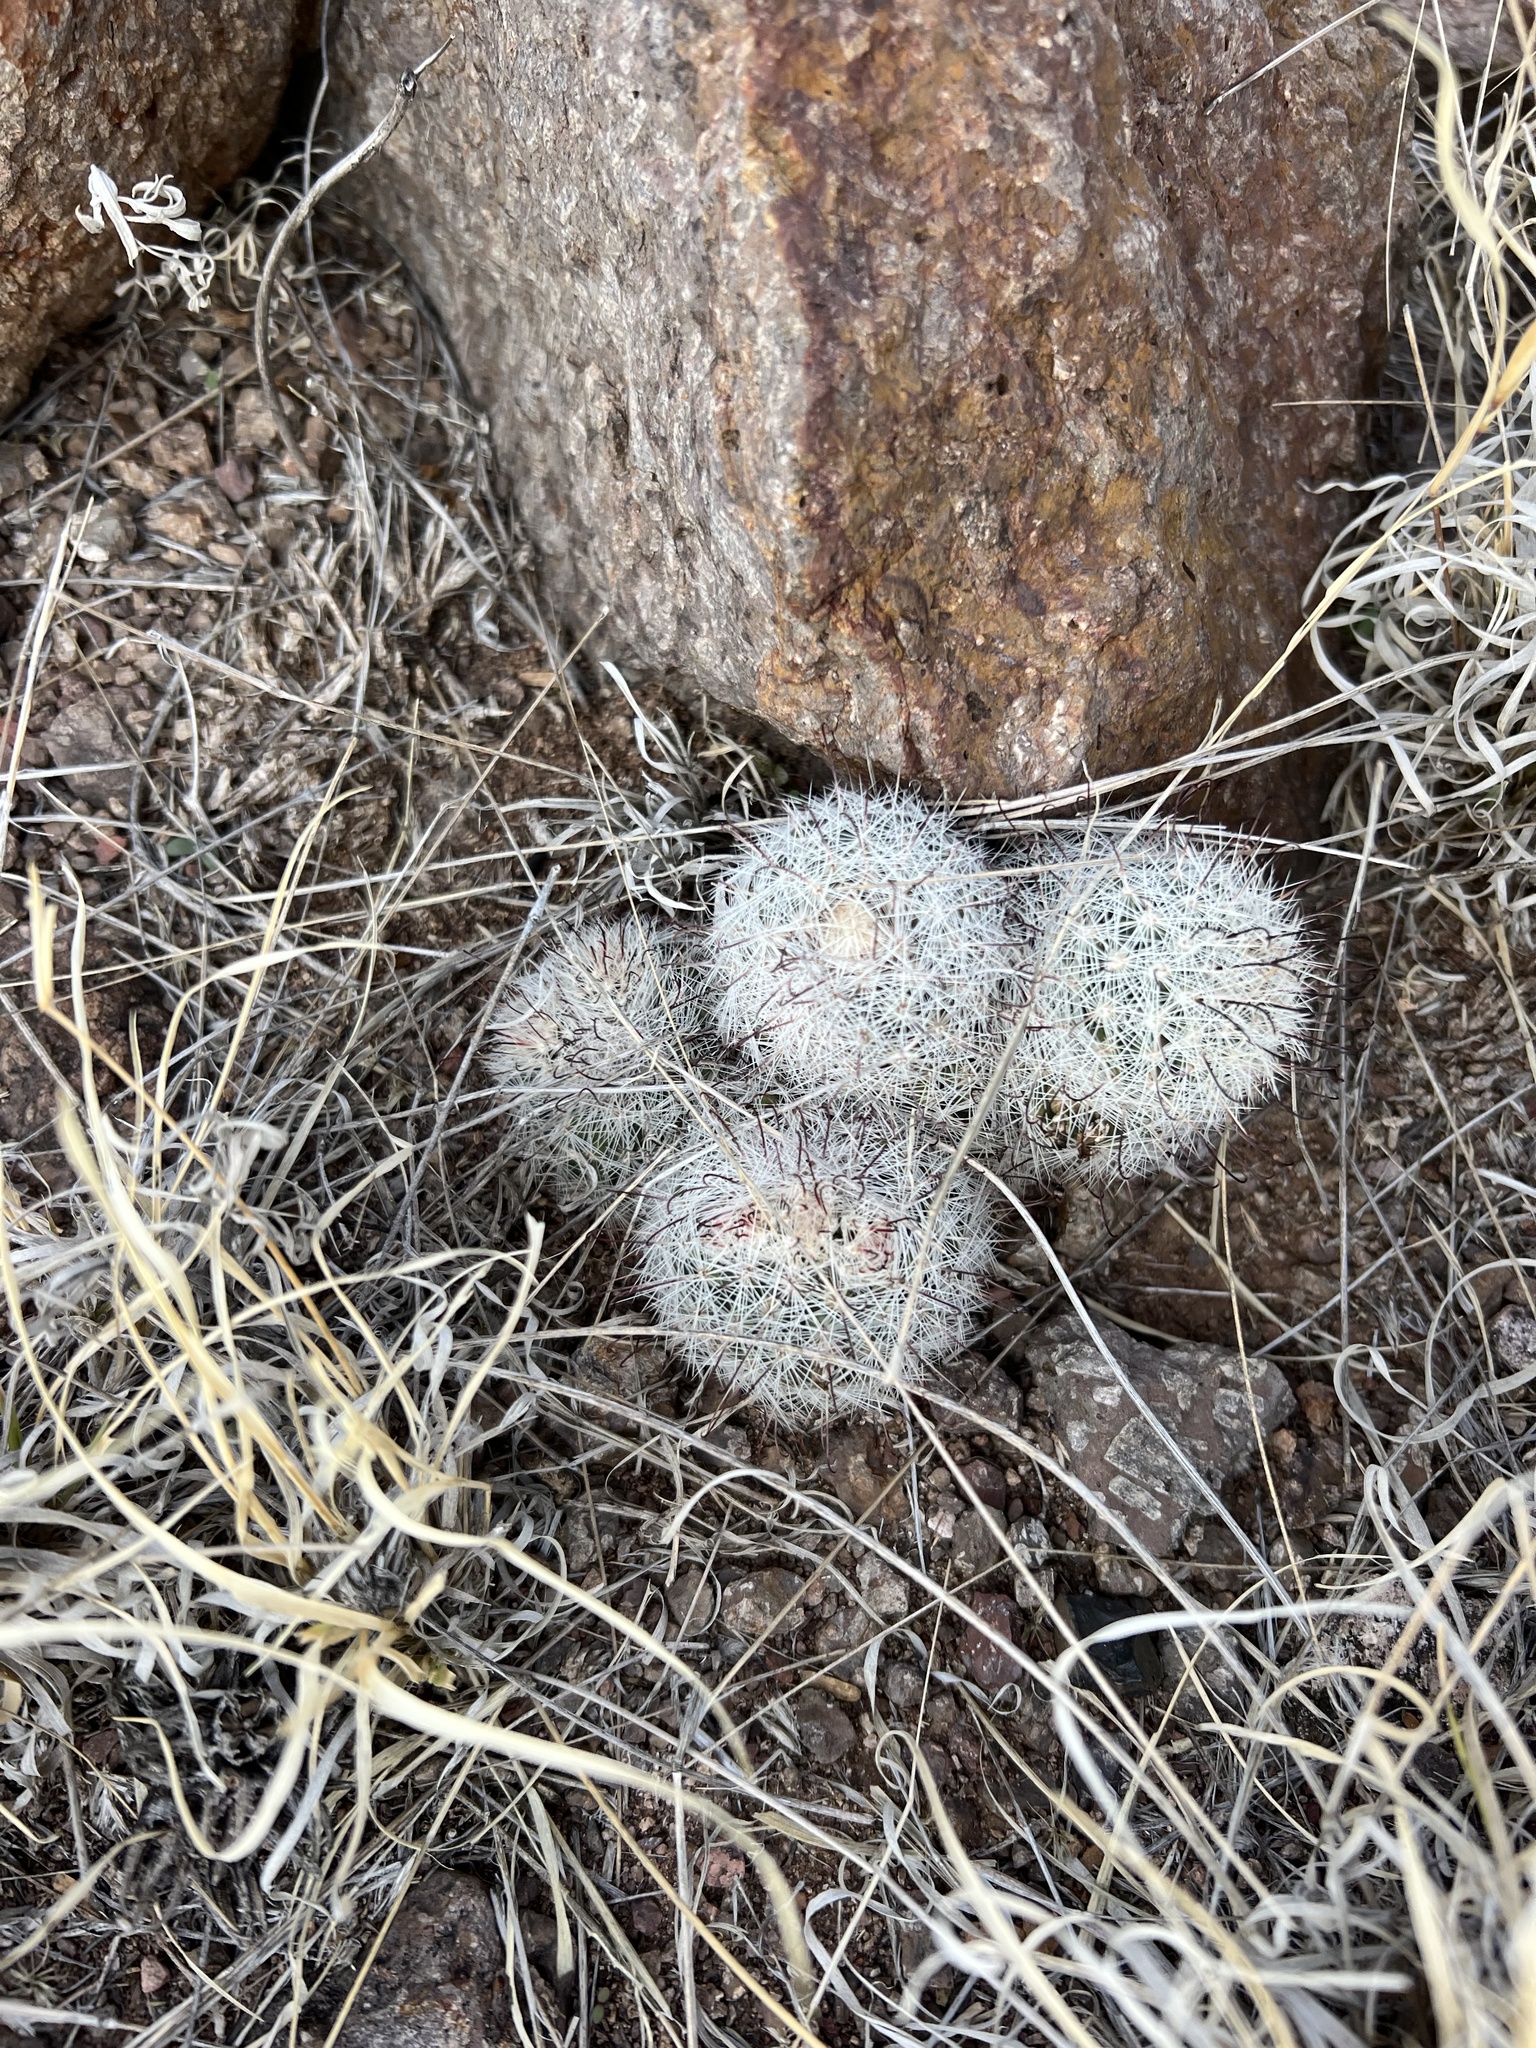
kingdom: Plantae
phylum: Tracheophyta
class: Magnoliopsida
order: Caryophyllales
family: Cactaceae
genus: Cochemiea
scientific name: Cochemiea grahamii
